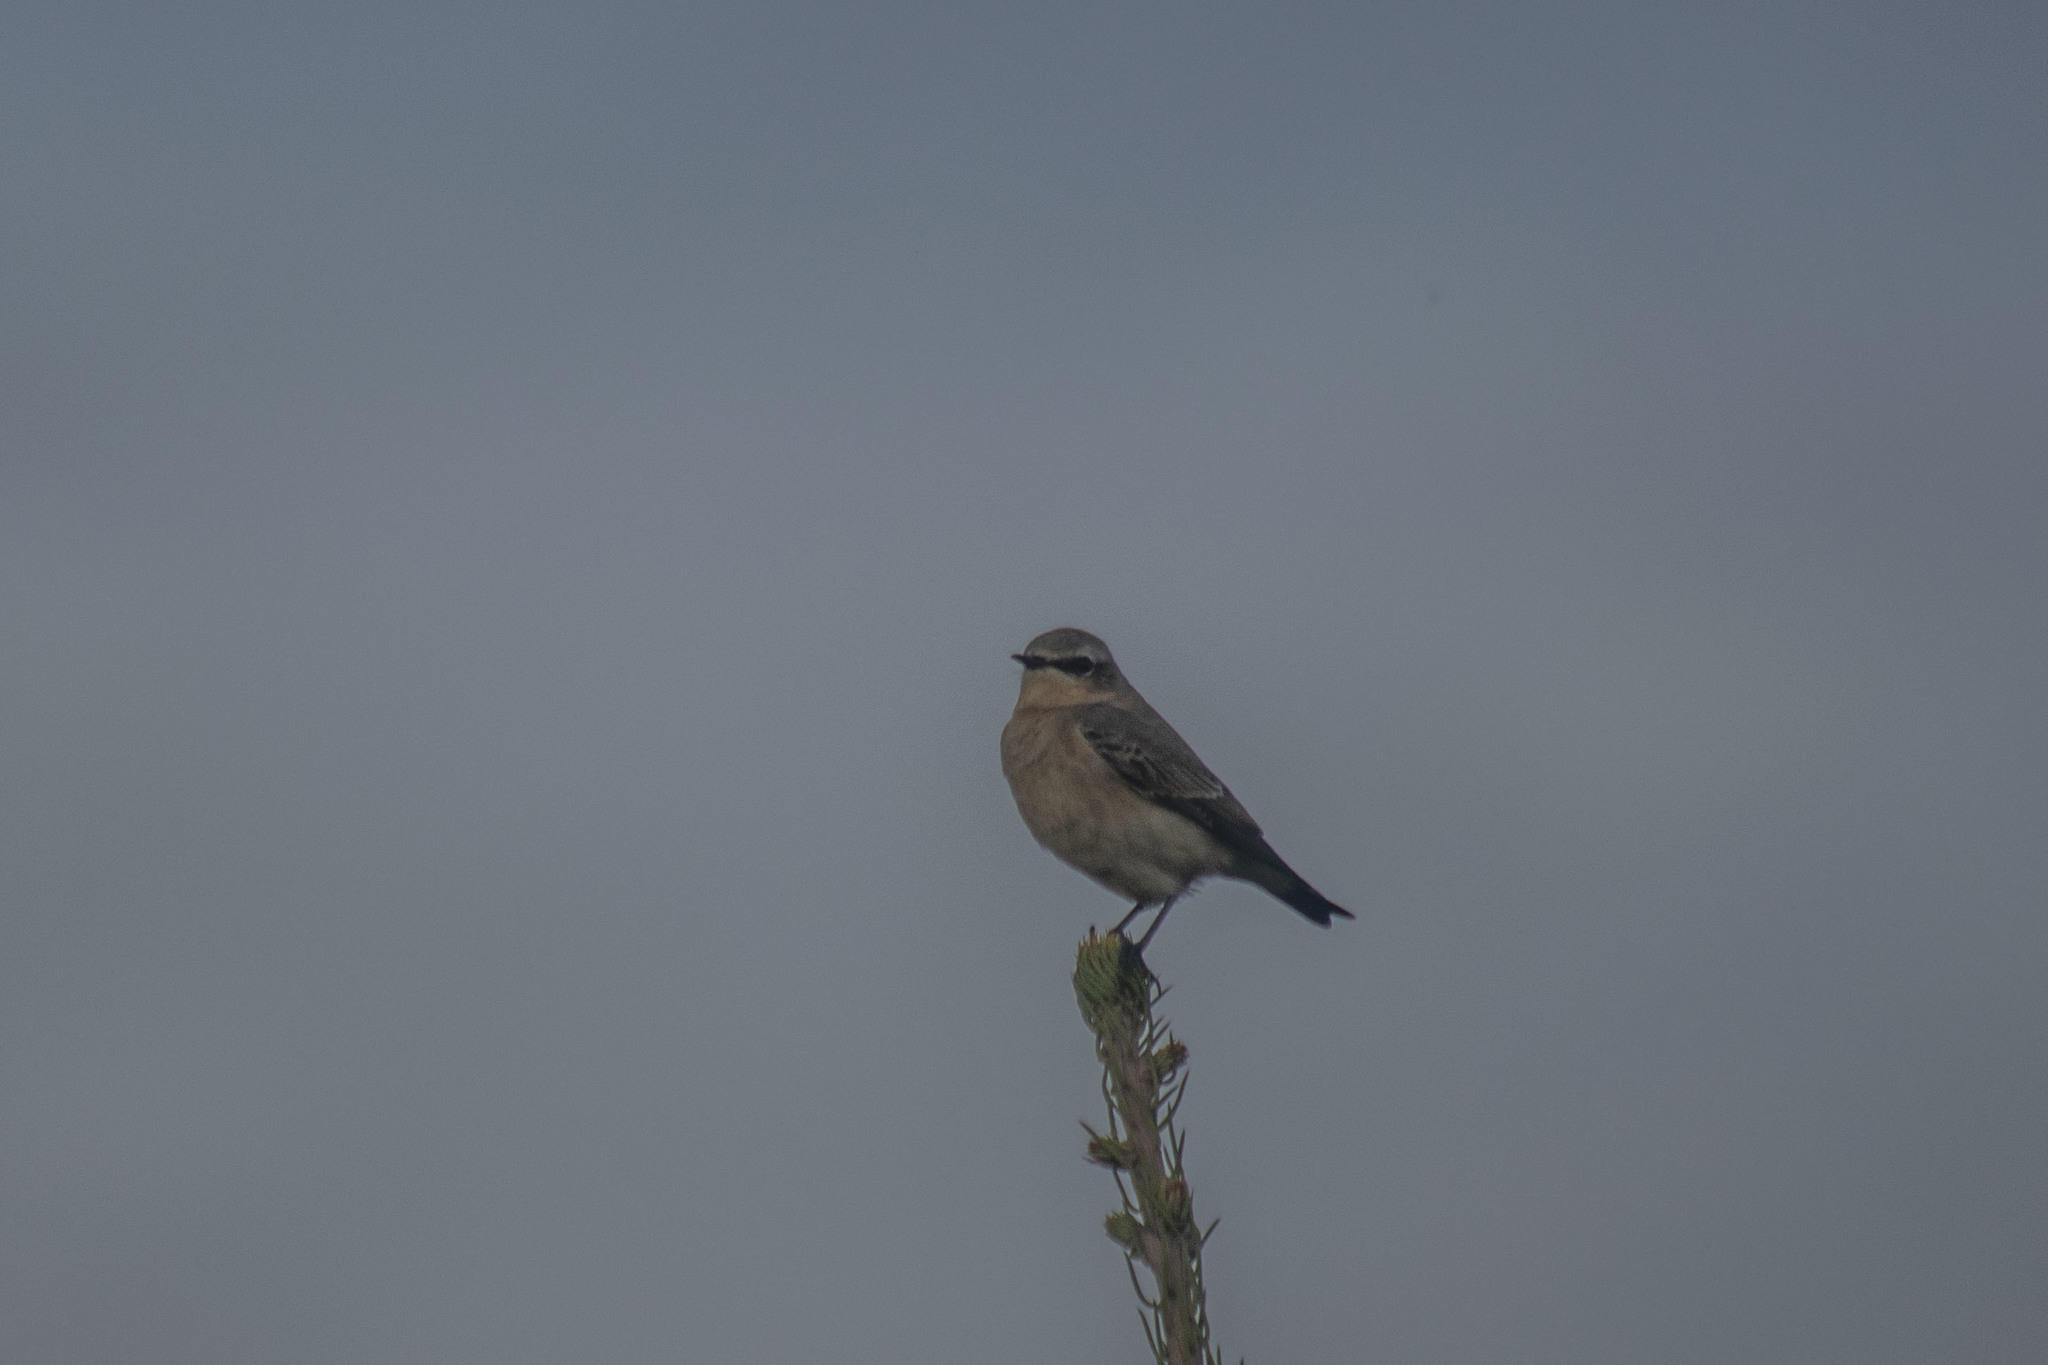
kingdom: Animalia
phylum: Chordata
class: Aves
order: Passeriformes
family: Muscicapidae
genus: Oenanthe
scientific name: Oenanthe oenanthe
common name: Northern wheatear
